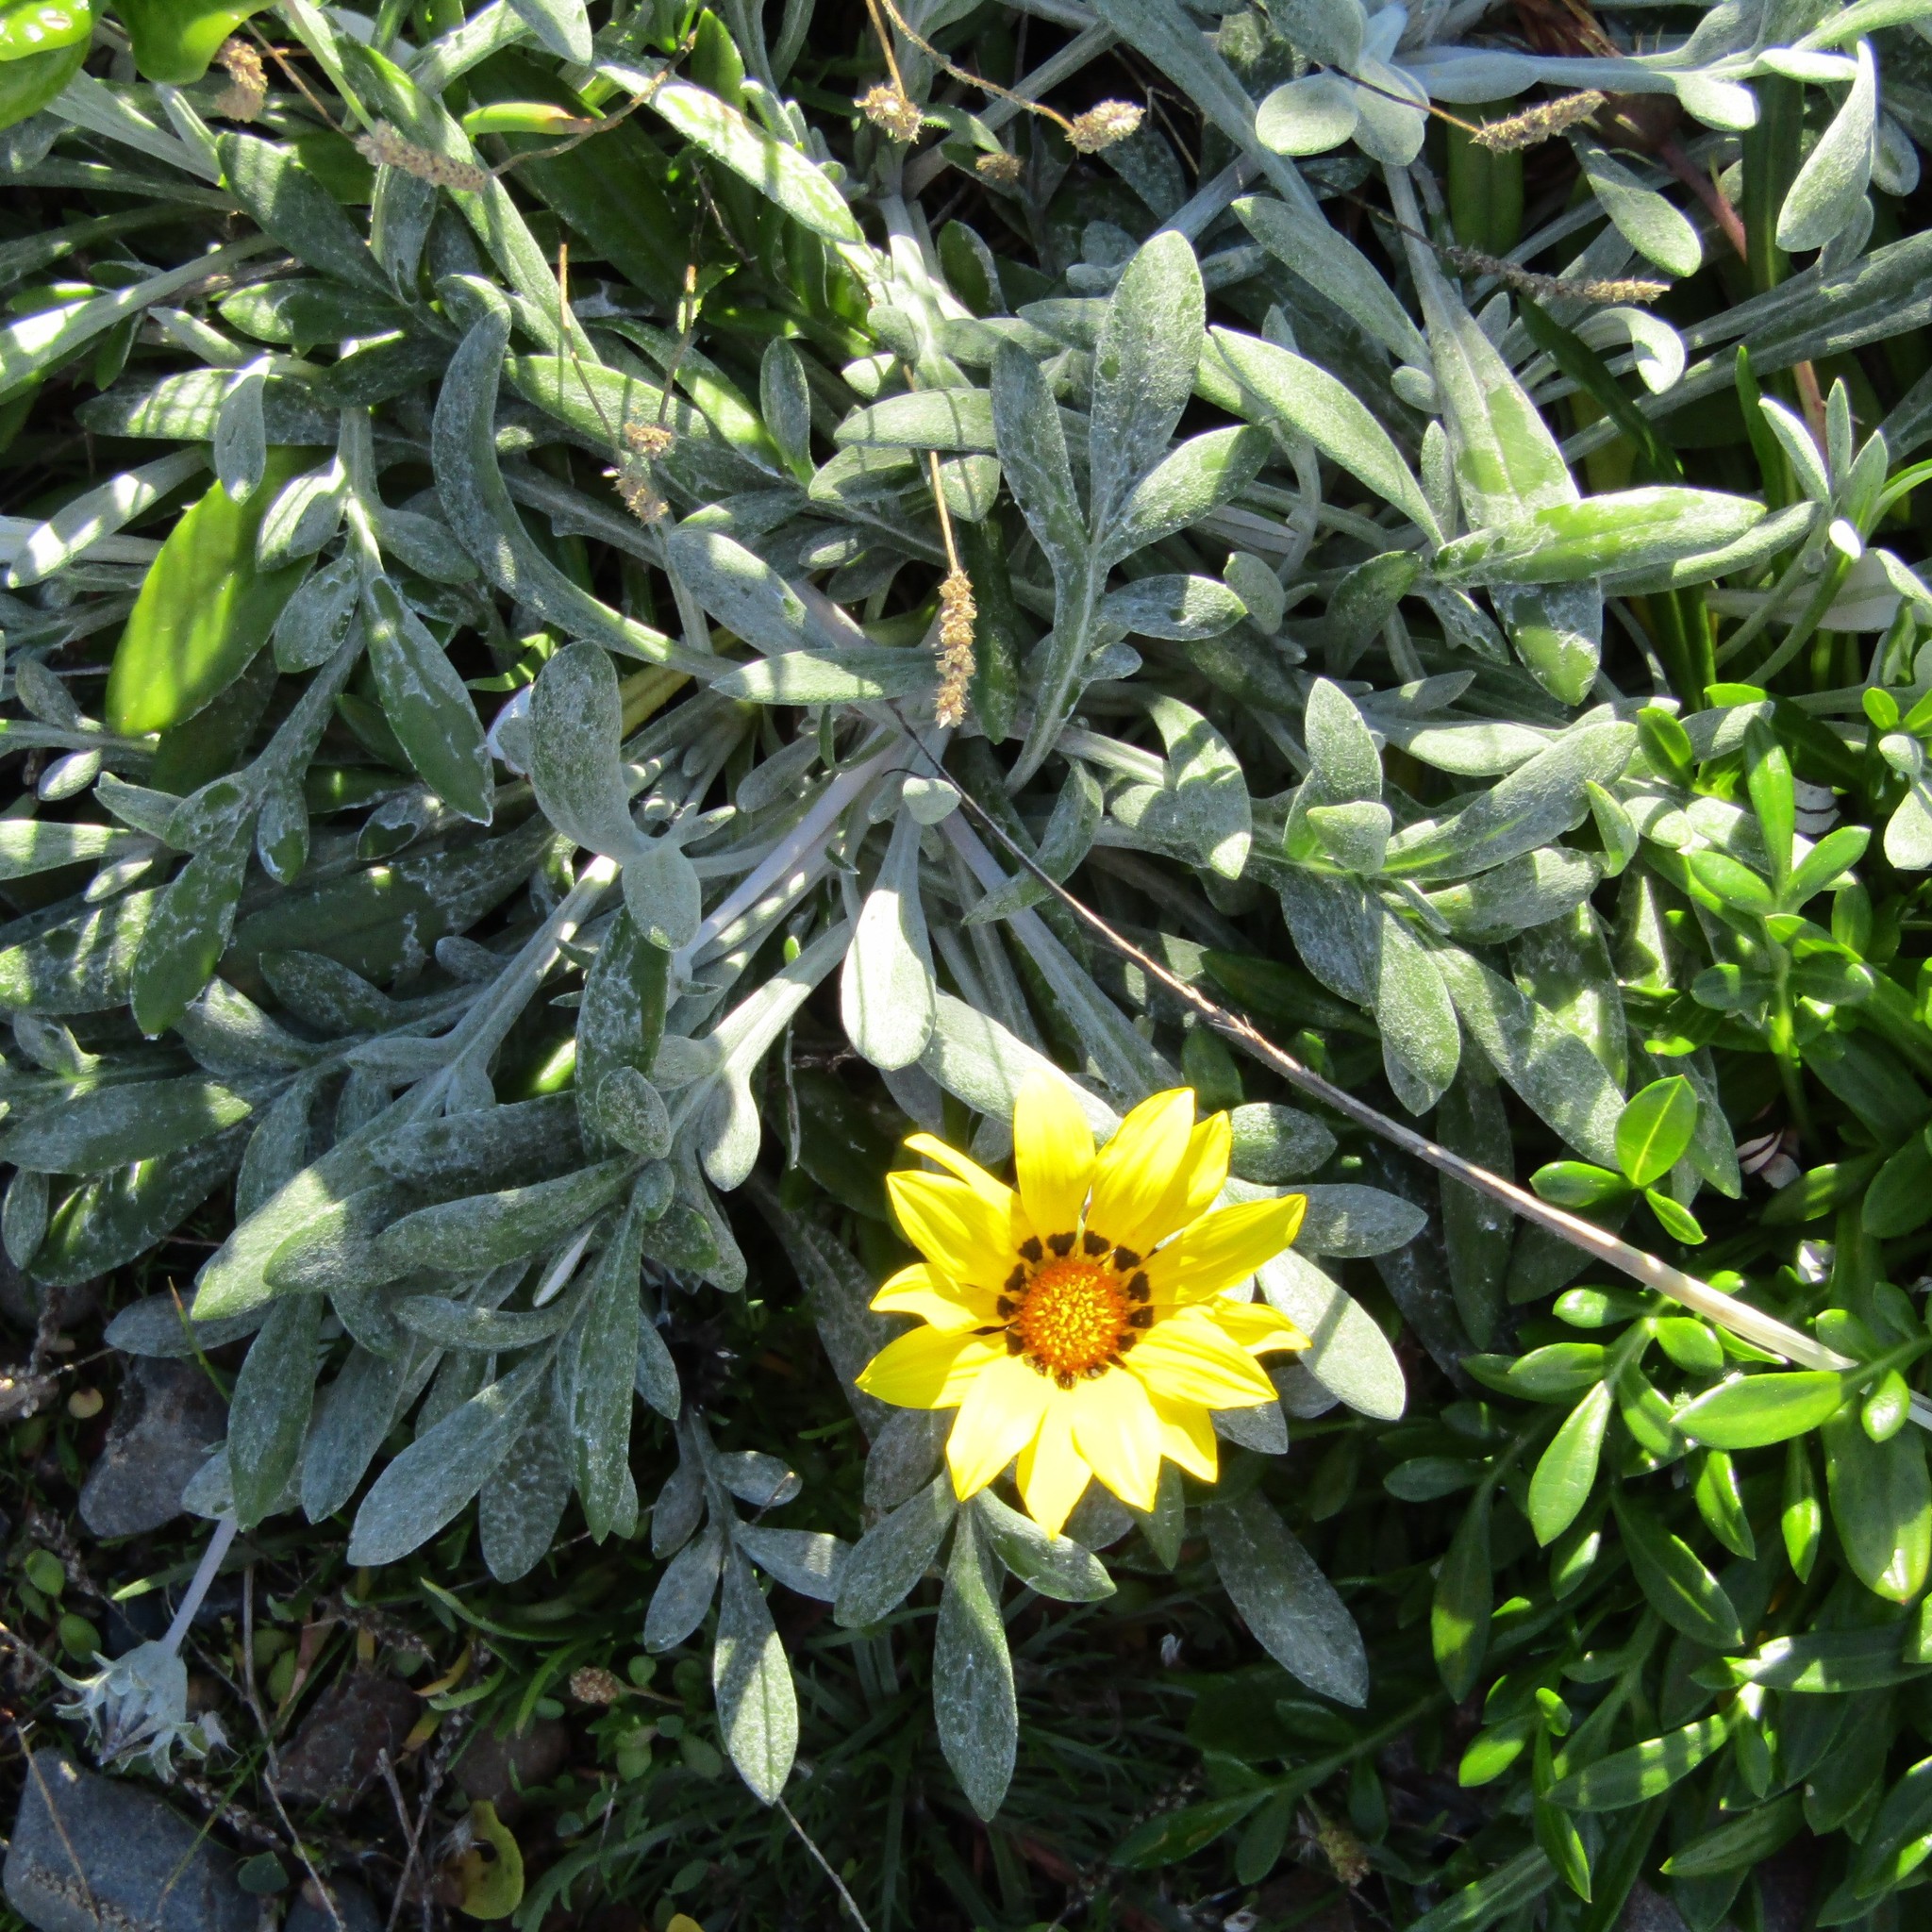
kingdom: Plantae
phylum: Tracheophyta
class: Magnoliopsida
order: Asterales
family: Asteraceae
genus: Gazania
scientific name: Gazania rigens
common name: Treasureflower
